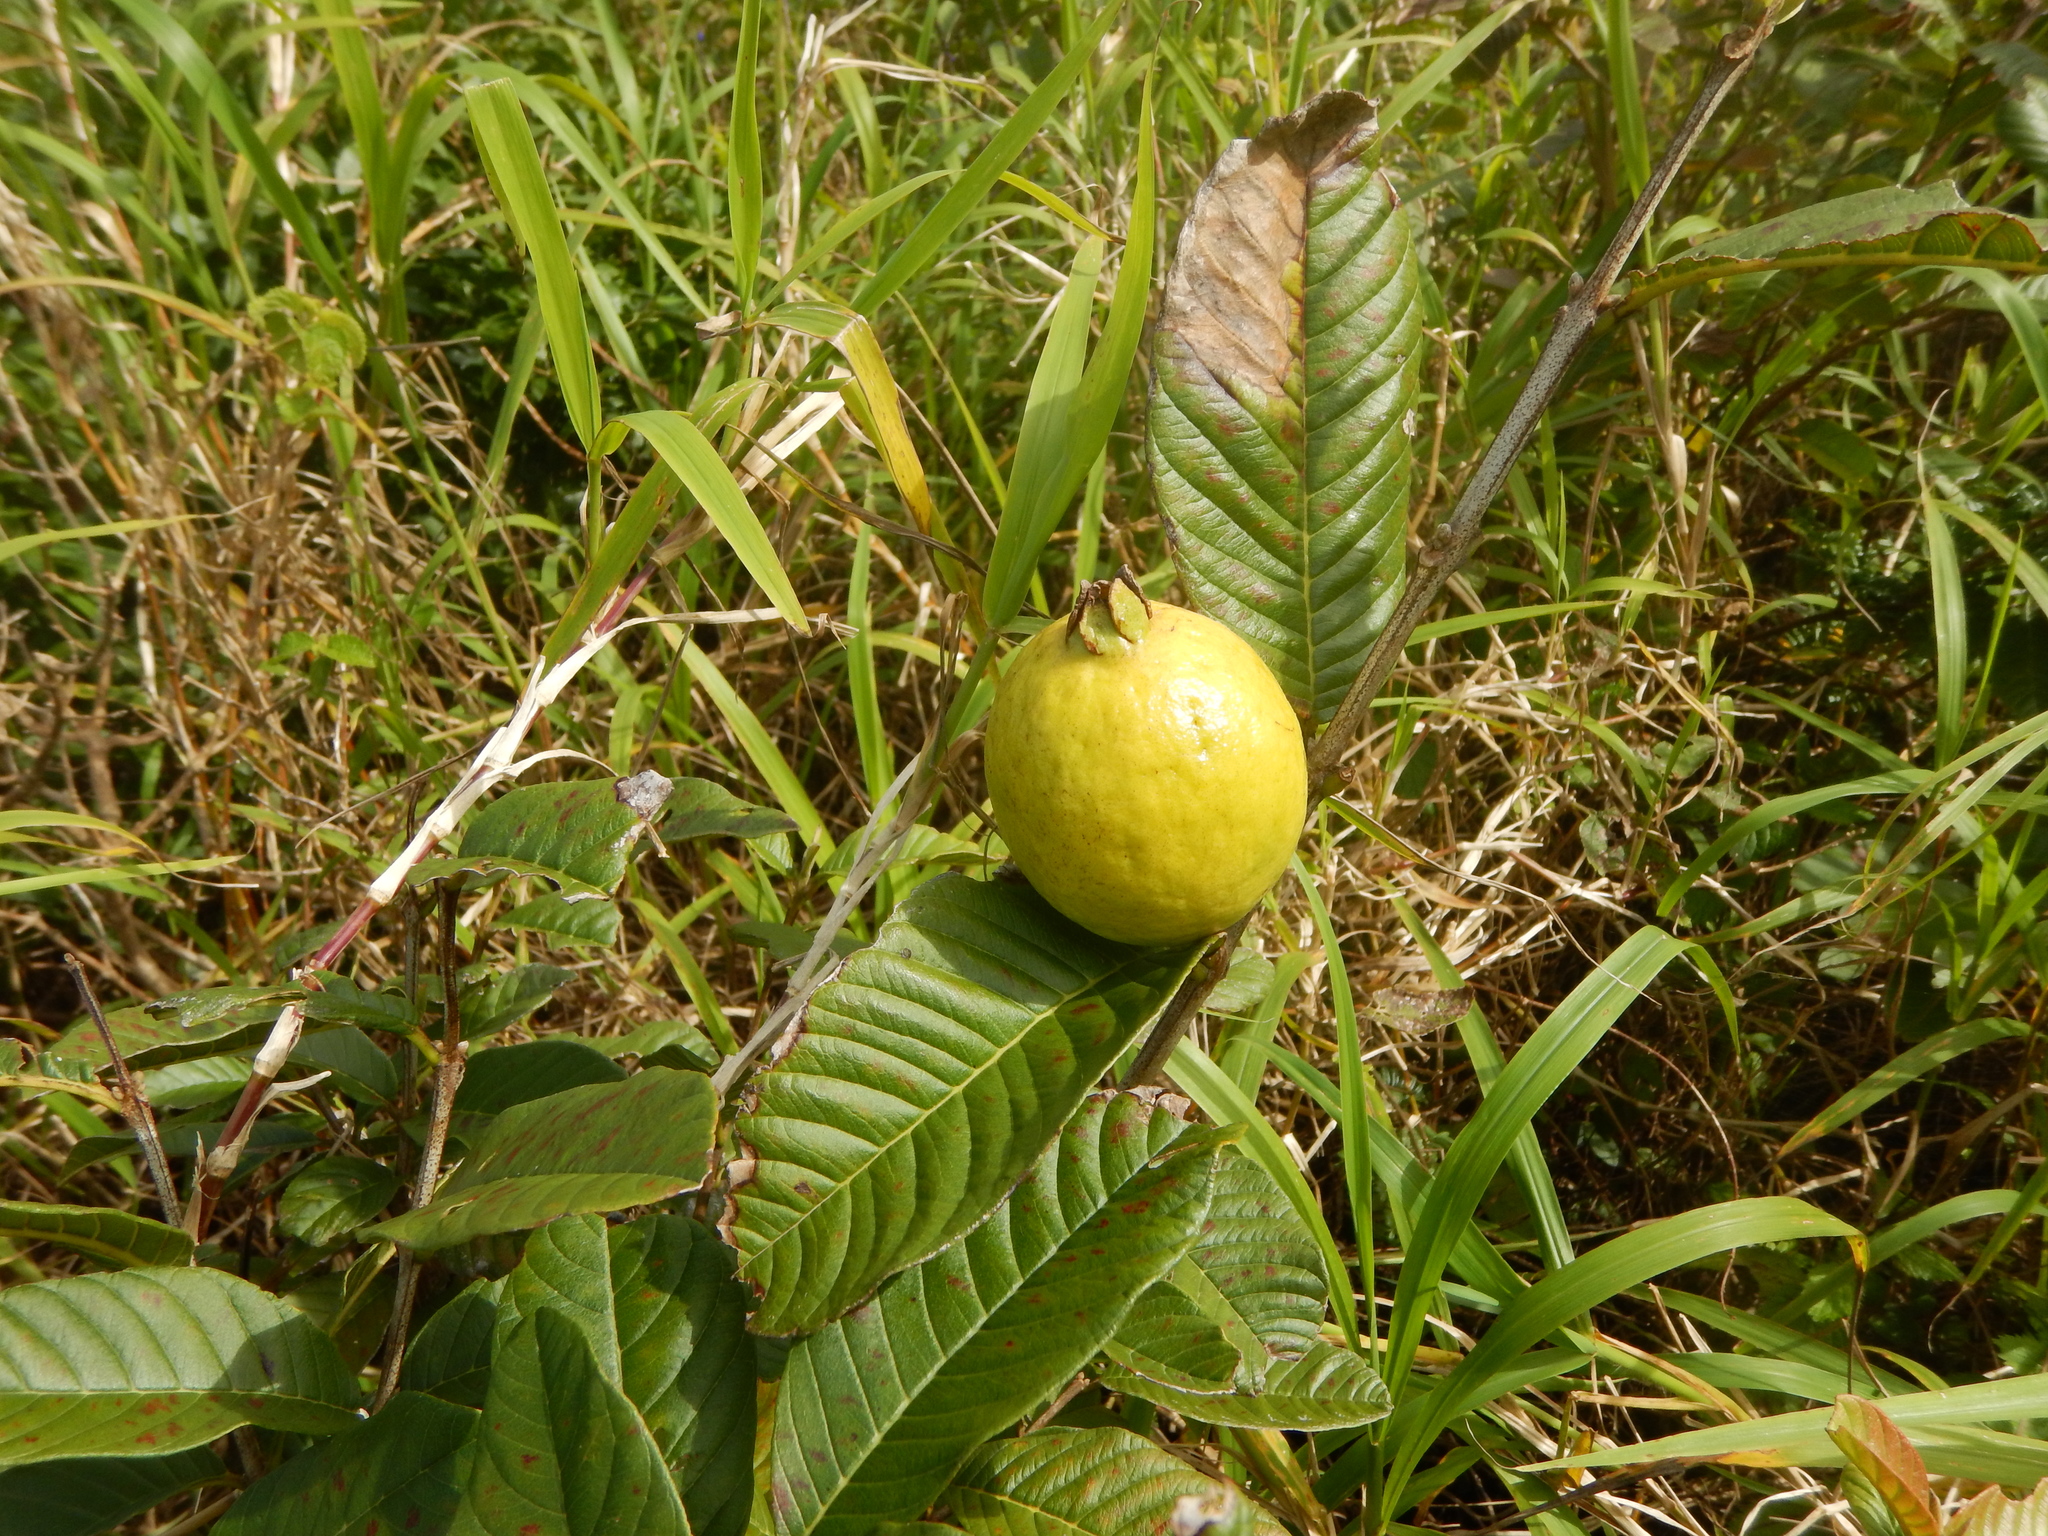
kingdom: Plantae
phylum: Tracheophyta
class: Magnoliopsida
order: Myrtales
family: Myrtaceae
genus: Psidium
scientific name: Psidium guajava
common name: Guava
